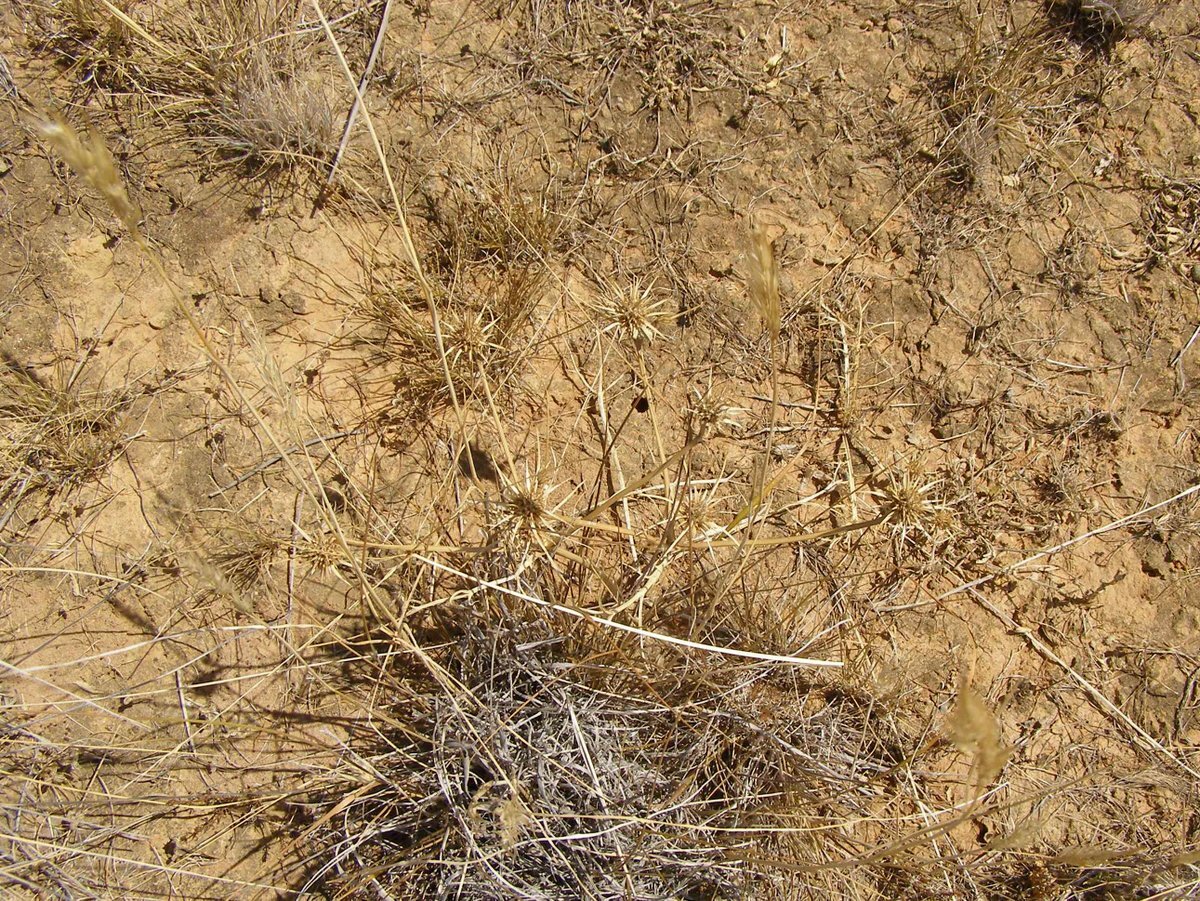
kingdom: Plantae
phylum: Tracheophyta
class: Magnoliopsida
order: Apiales
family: Apiaceae
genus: Eryngium
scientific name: Eryngium ovinum
